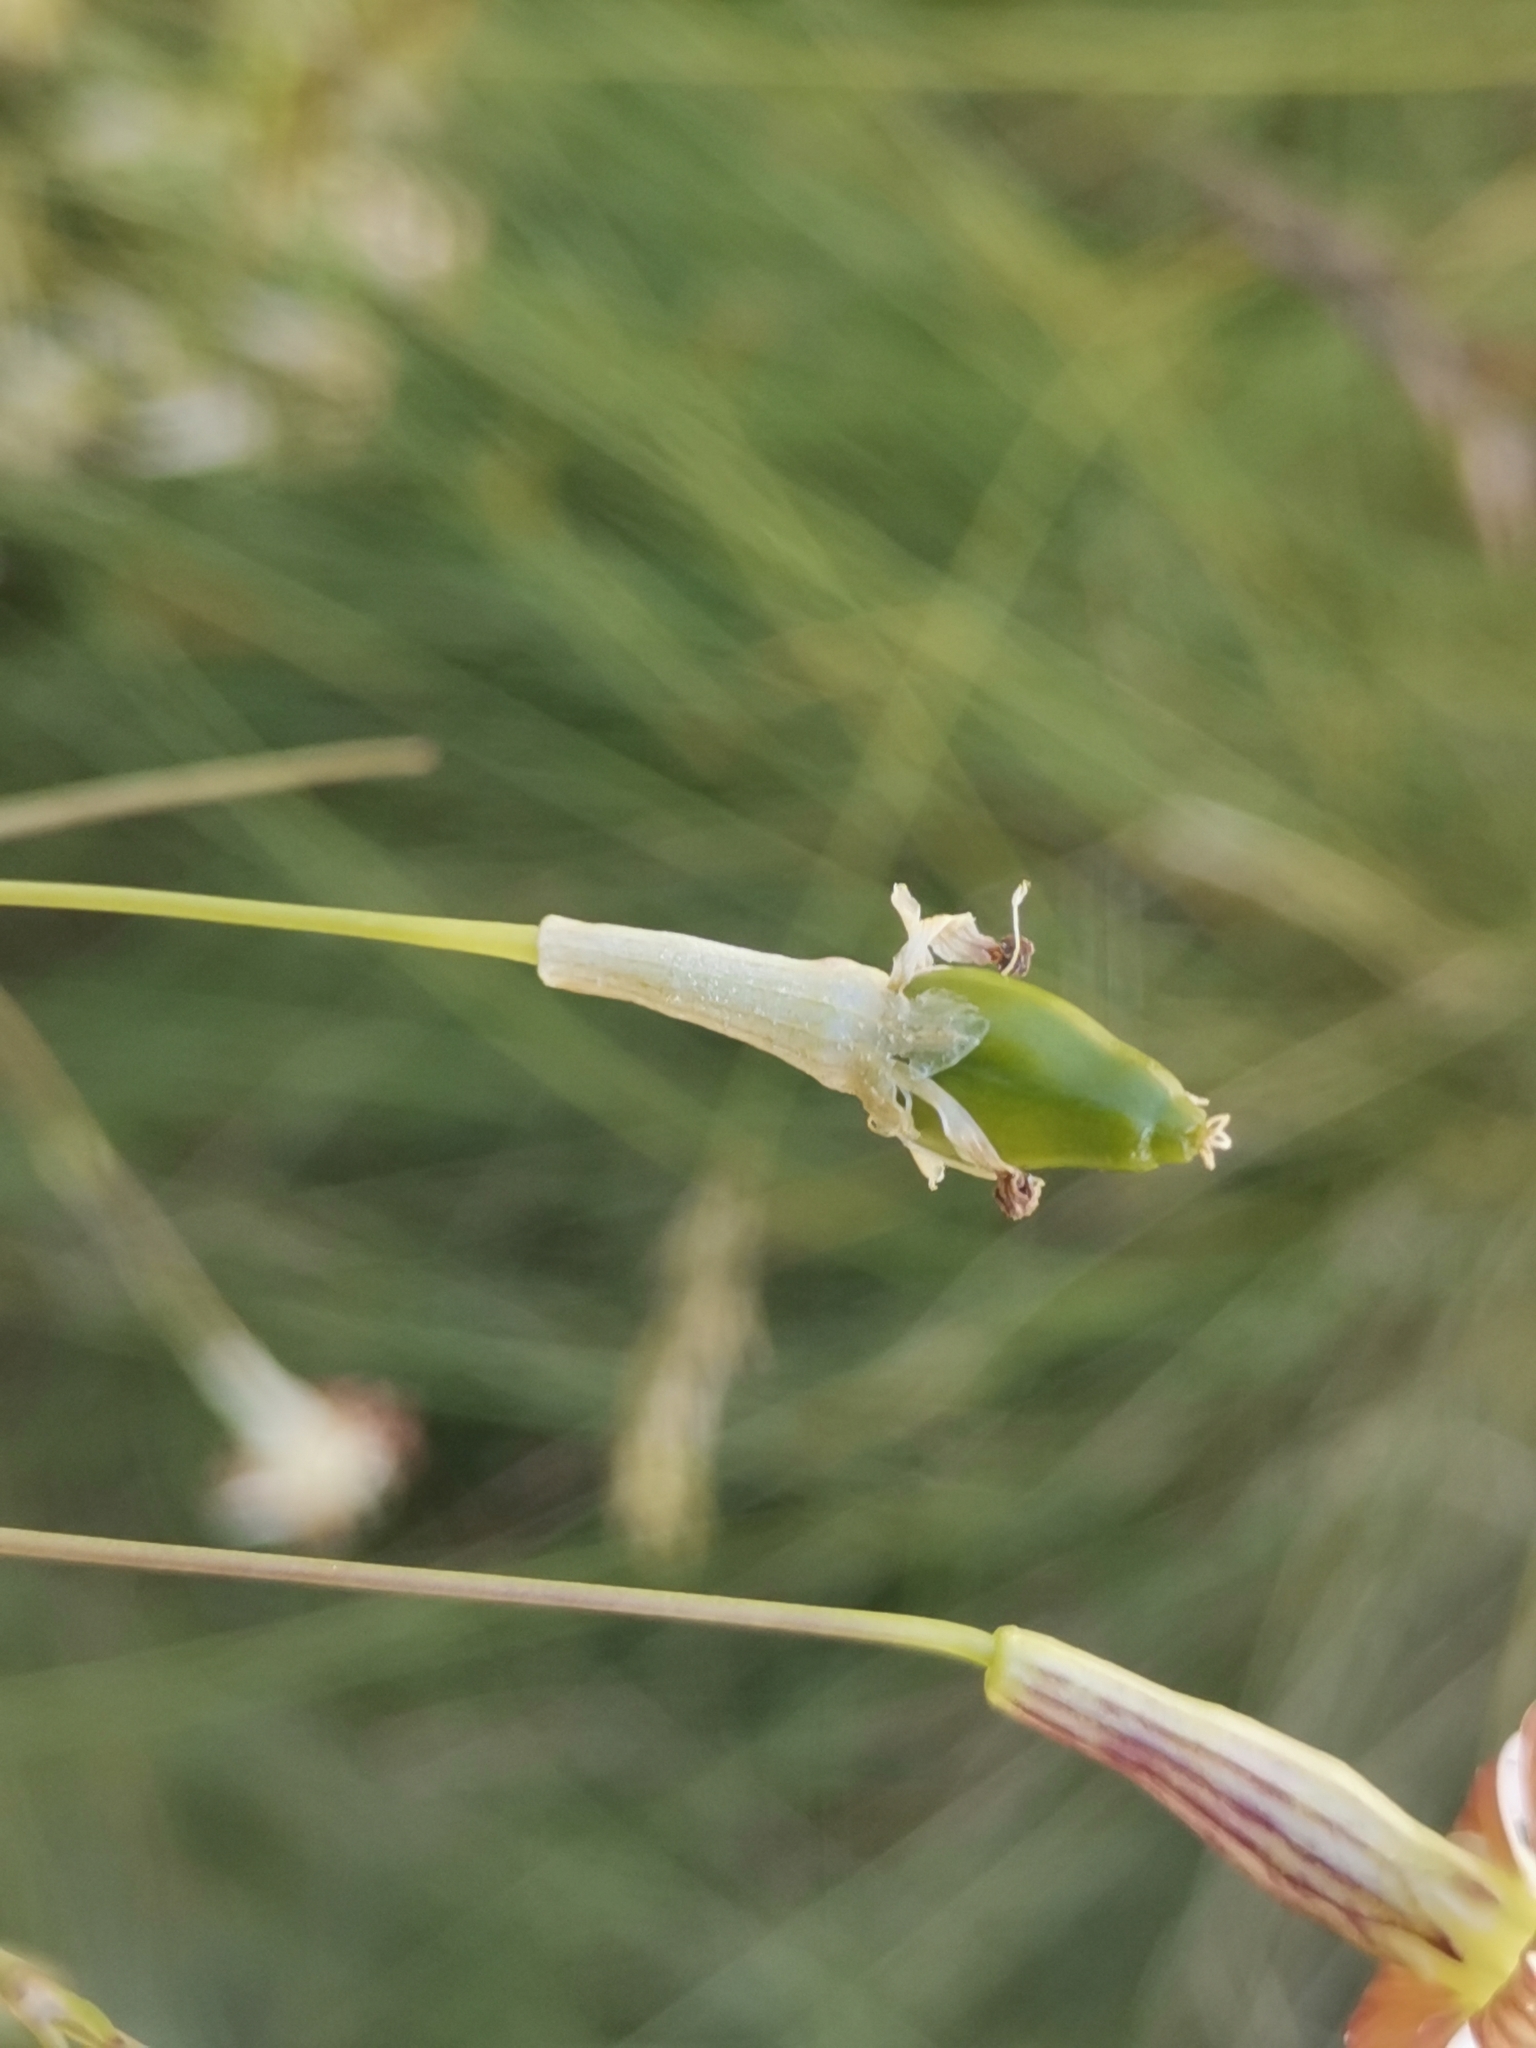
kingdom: Plantae
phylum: Tracheophyta
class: Magnoliopsida
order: Caryophyllales
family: Caryophyllaceae
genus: Silene
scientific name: Silene saxifraga
